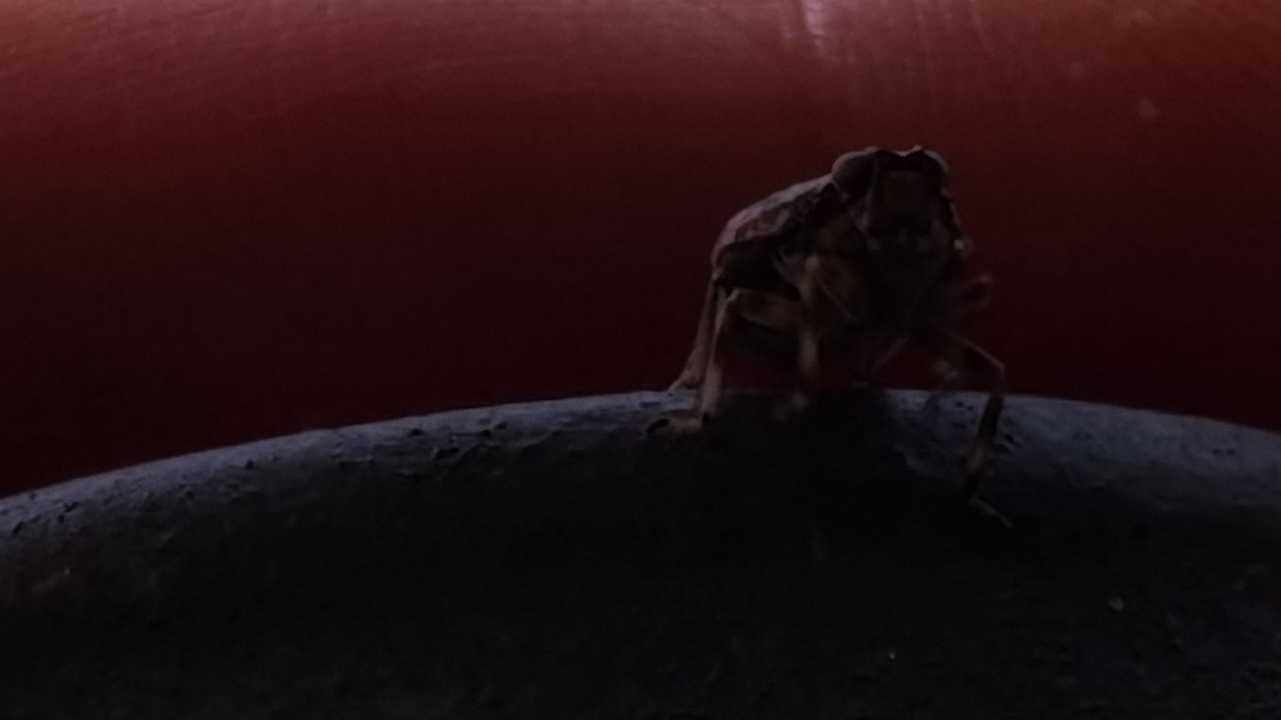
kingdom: Animalia
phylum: Arthropoda
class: Insecta
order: Hemiptera
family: Issidae
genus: Issus
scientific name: Issus coleoptratus
